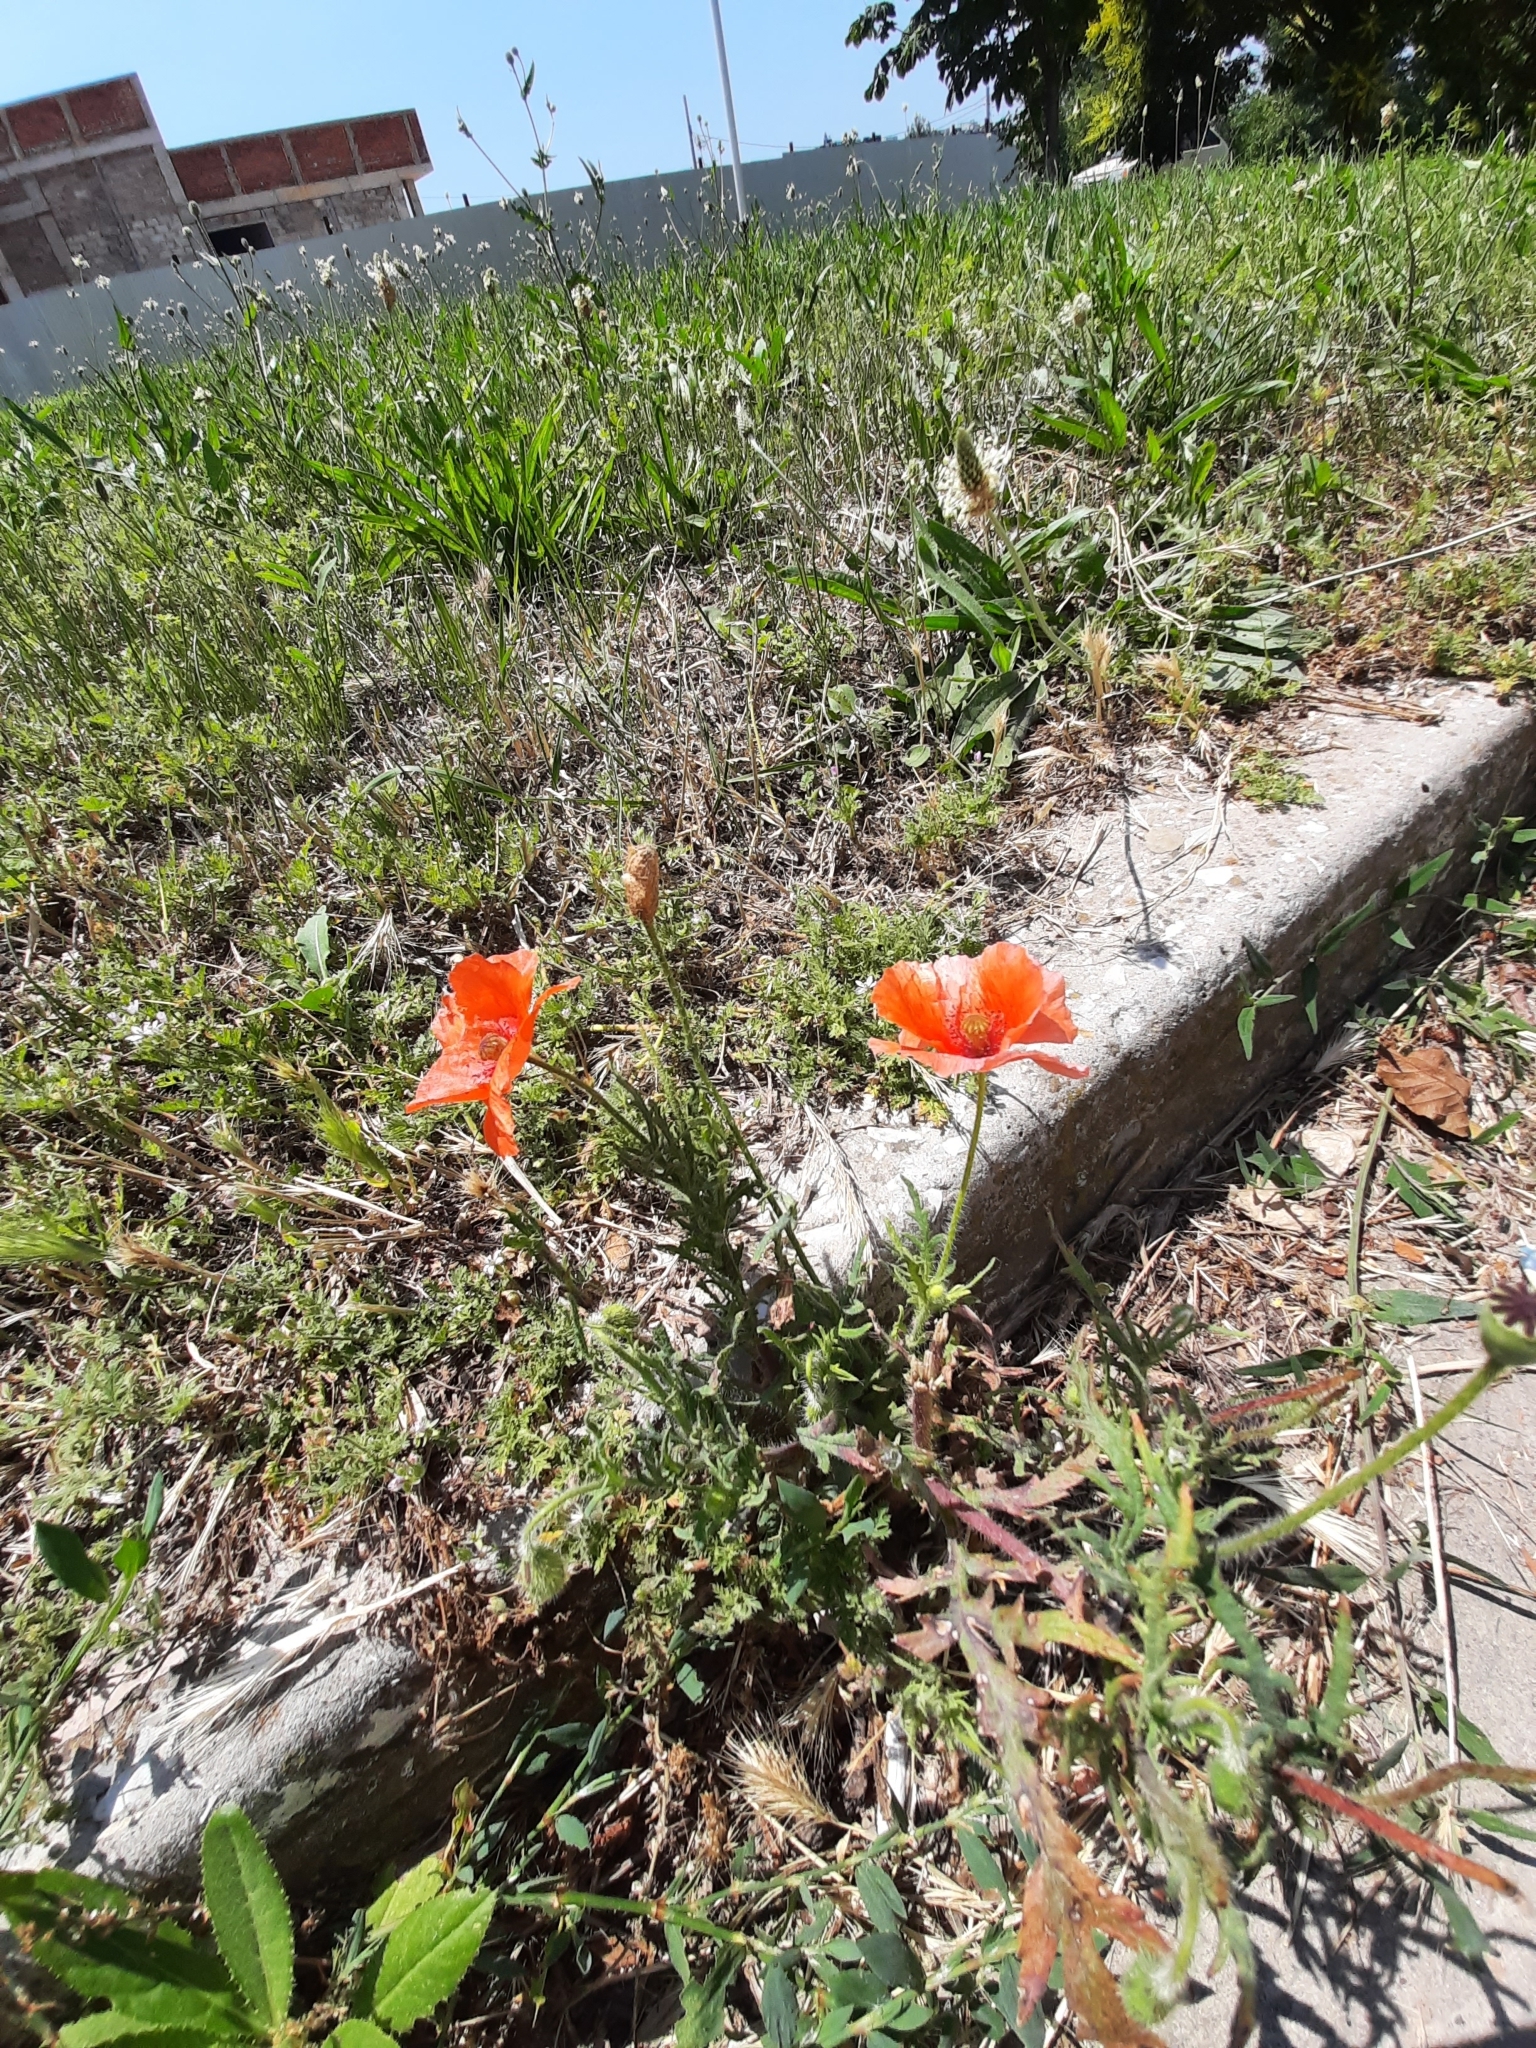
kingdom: Plantae
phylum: Tracheophyta
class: Magnoliopsida
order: Ranunculales
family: Papaveraceae
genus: Papaver
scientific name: Papaver rhoeas
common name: Corn poppy
